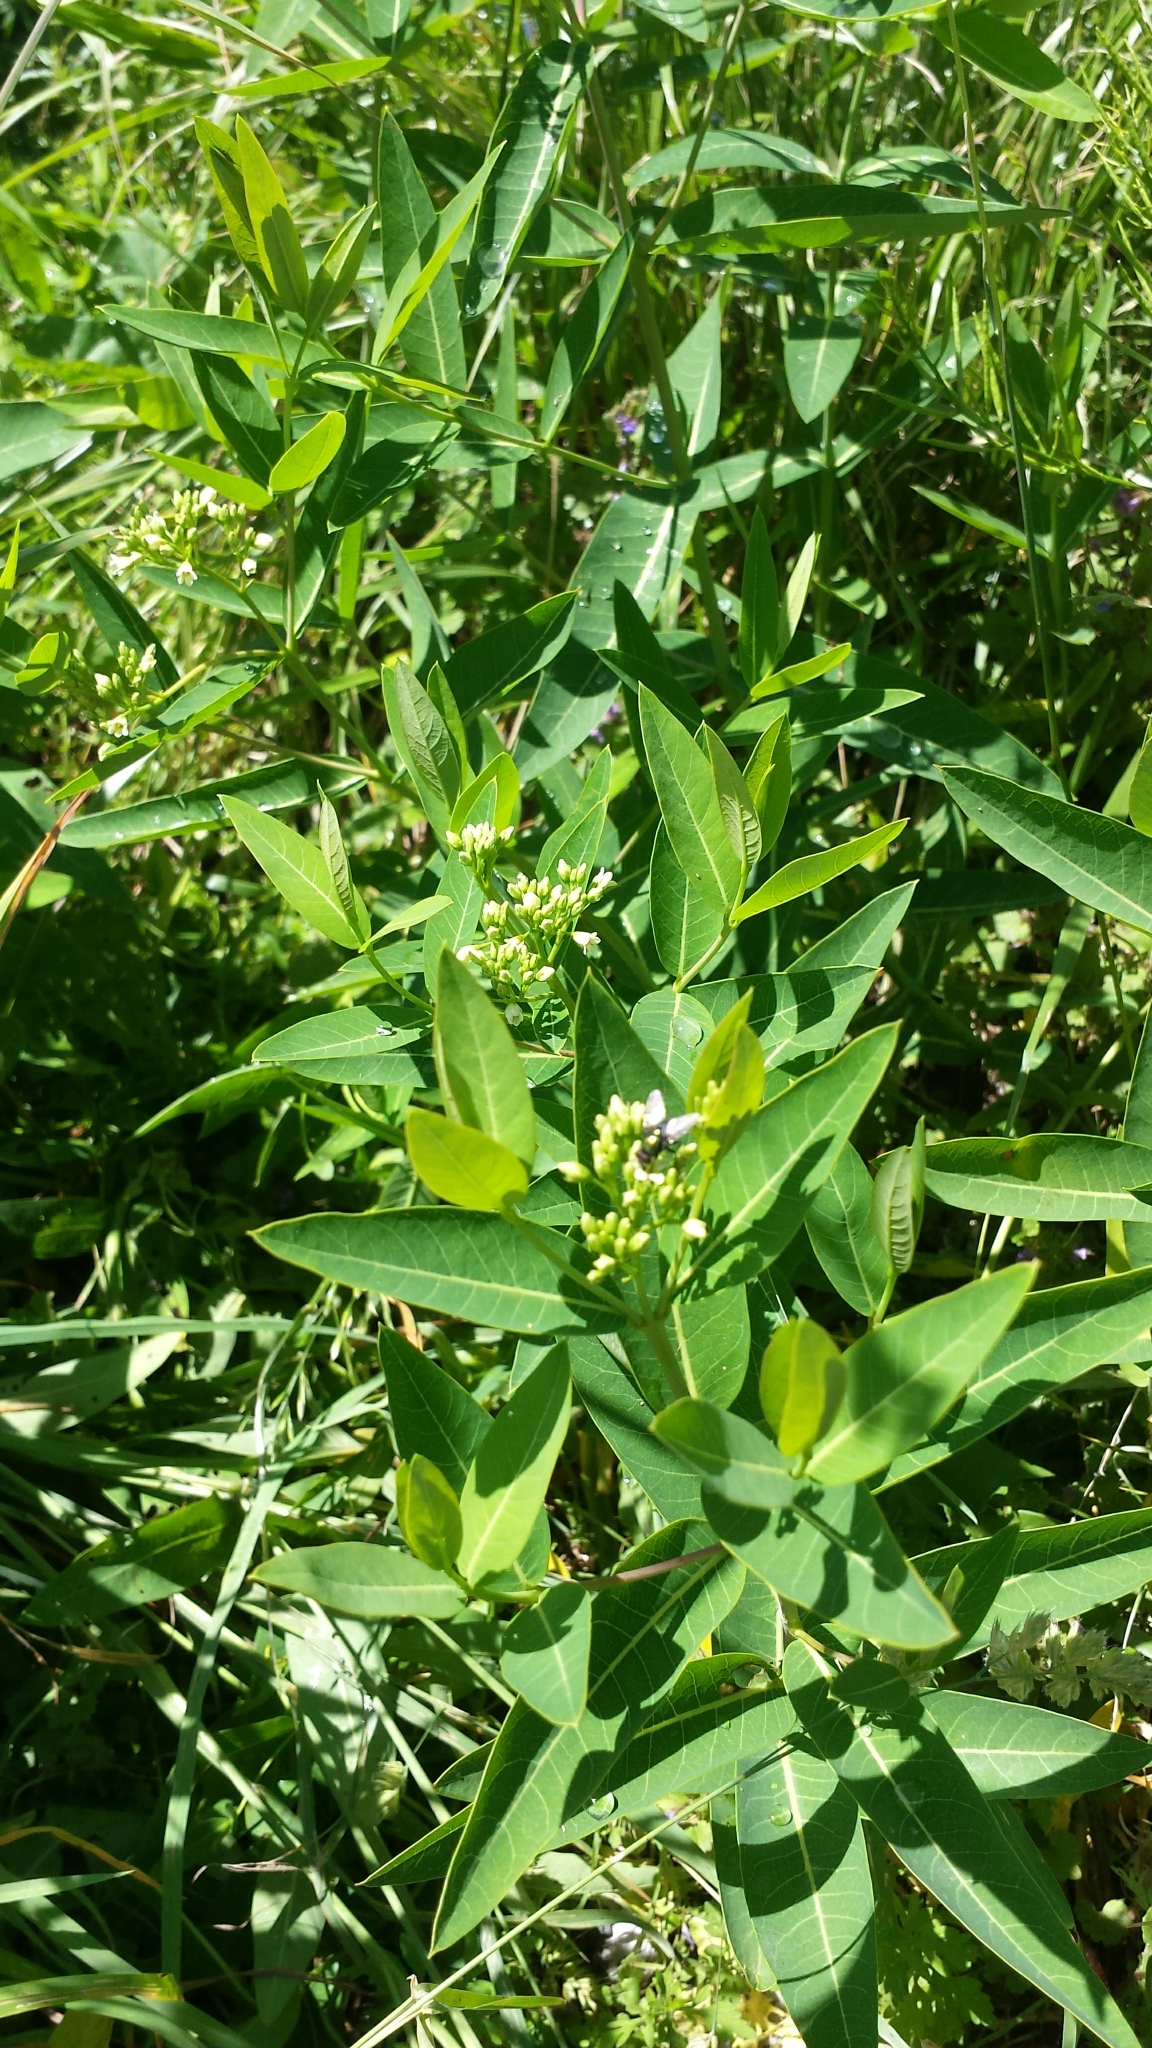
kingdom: Plantae
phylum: Tracheophyta
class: Magnoliopsida
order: Gentianales
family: Apocynaceae
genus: Apocynum
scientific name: Apocynum cannabinum
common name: Hemp dogbane
